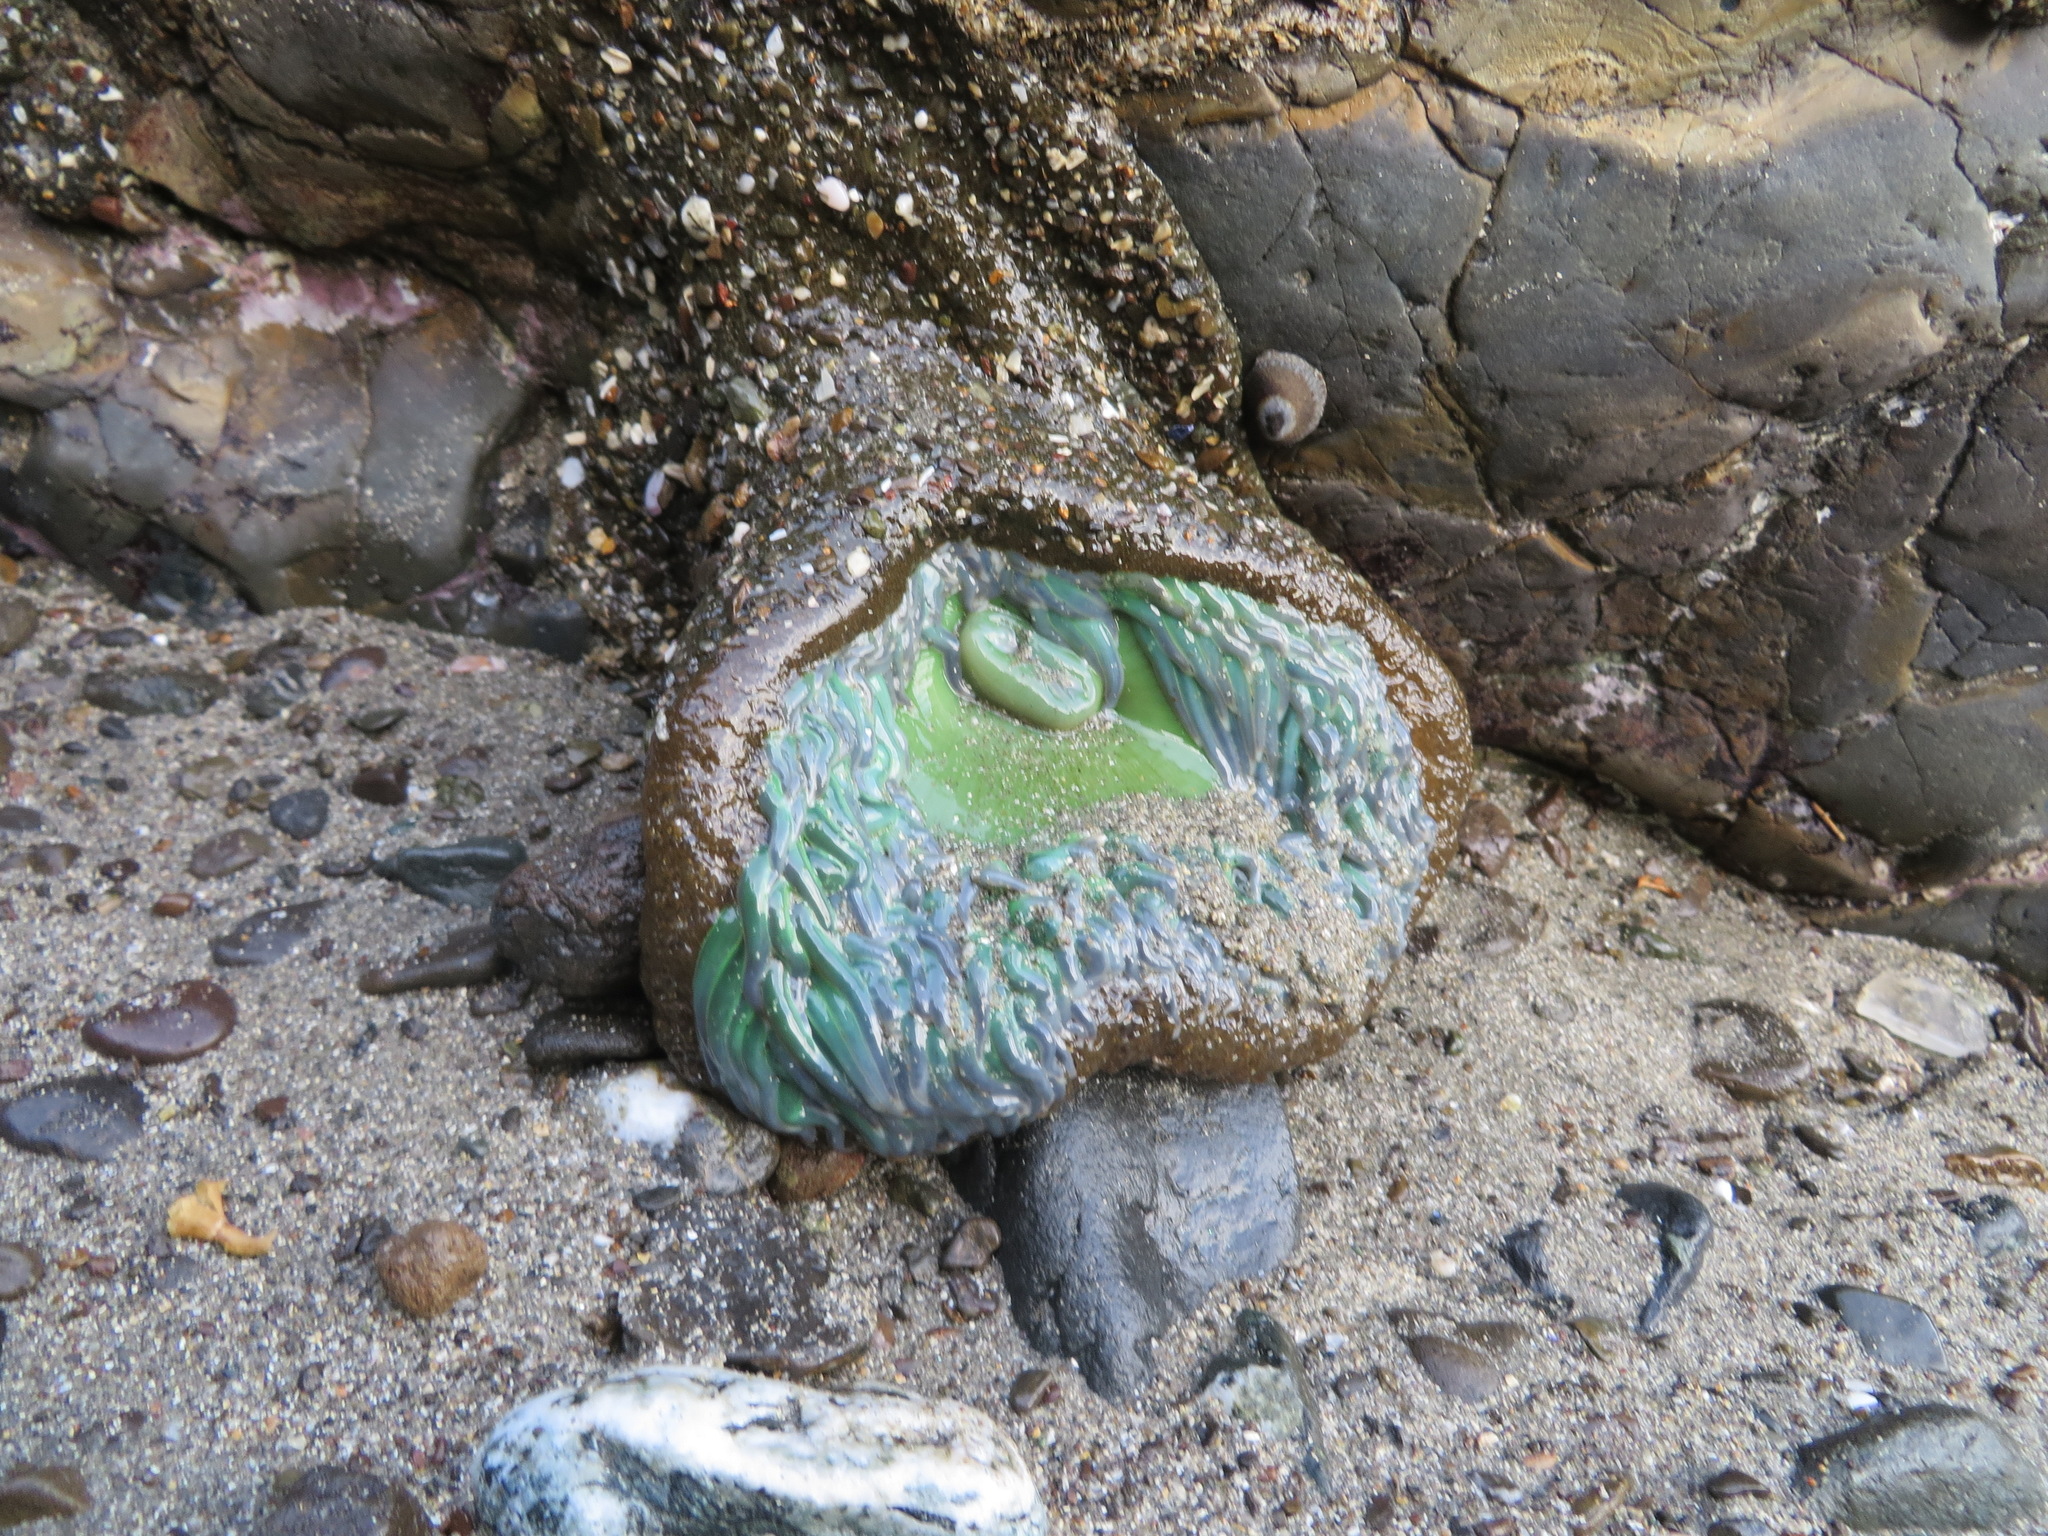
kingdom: Animalia
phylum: Cnidaria
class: Anthozoa
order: Actiniaria
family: Actiniidae
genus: Anthopleura
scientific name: Anthopleura xanthogrammica
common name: Giant green anemone
